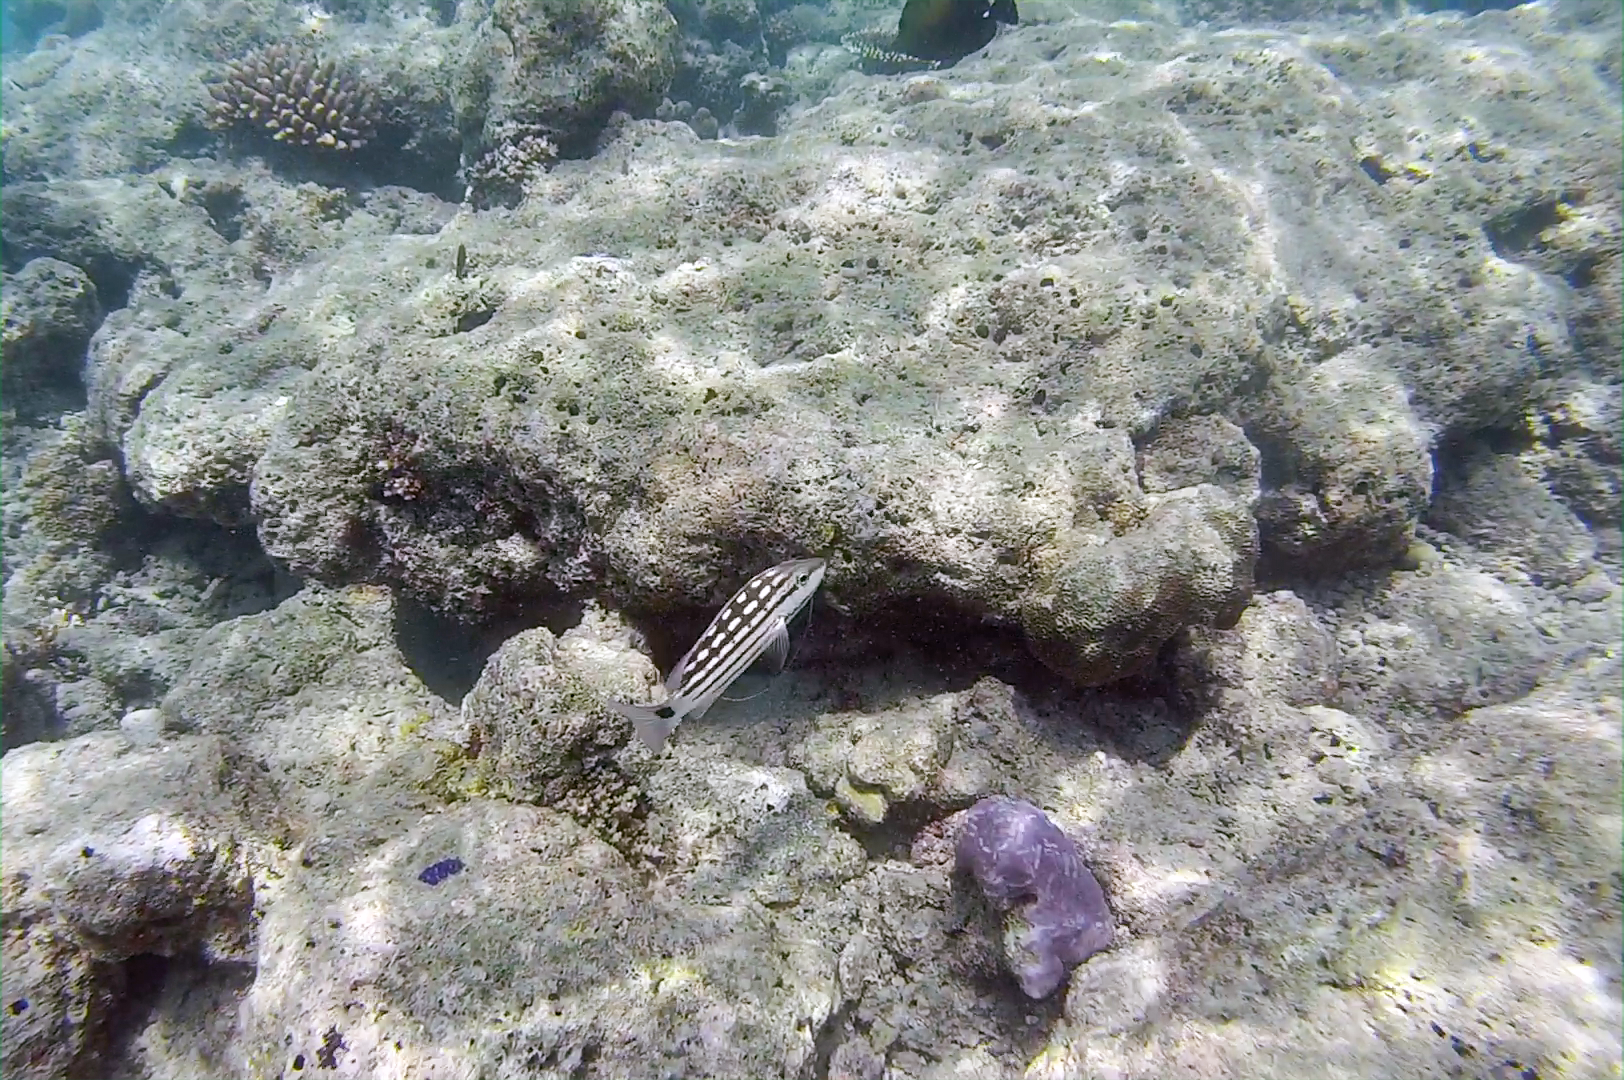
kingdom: Animalia
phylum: Chordata
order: Perciformes
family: Lutjanidae
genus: Lutjanus
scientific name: Lutjanus decussatus
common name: Checkered snapper
